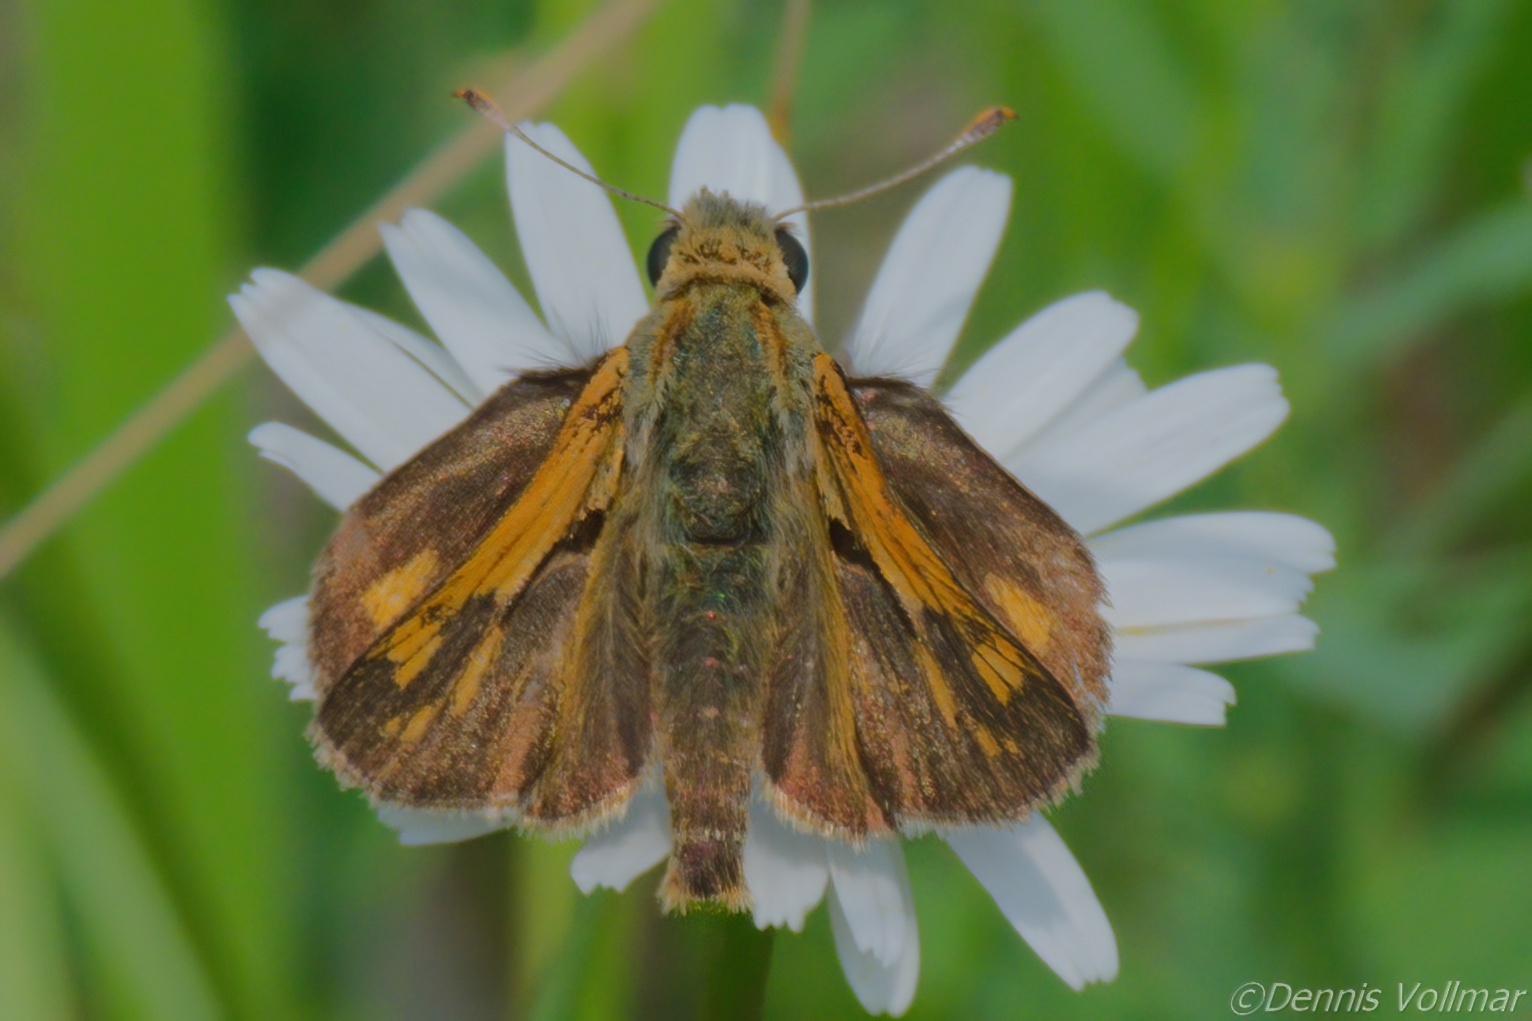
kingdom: Animalia
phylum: Arthropoda
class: Insecta
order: Lepidoptera
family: Hesperiidae
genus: Polites
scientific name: Polites coras
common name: Peck's skipper
